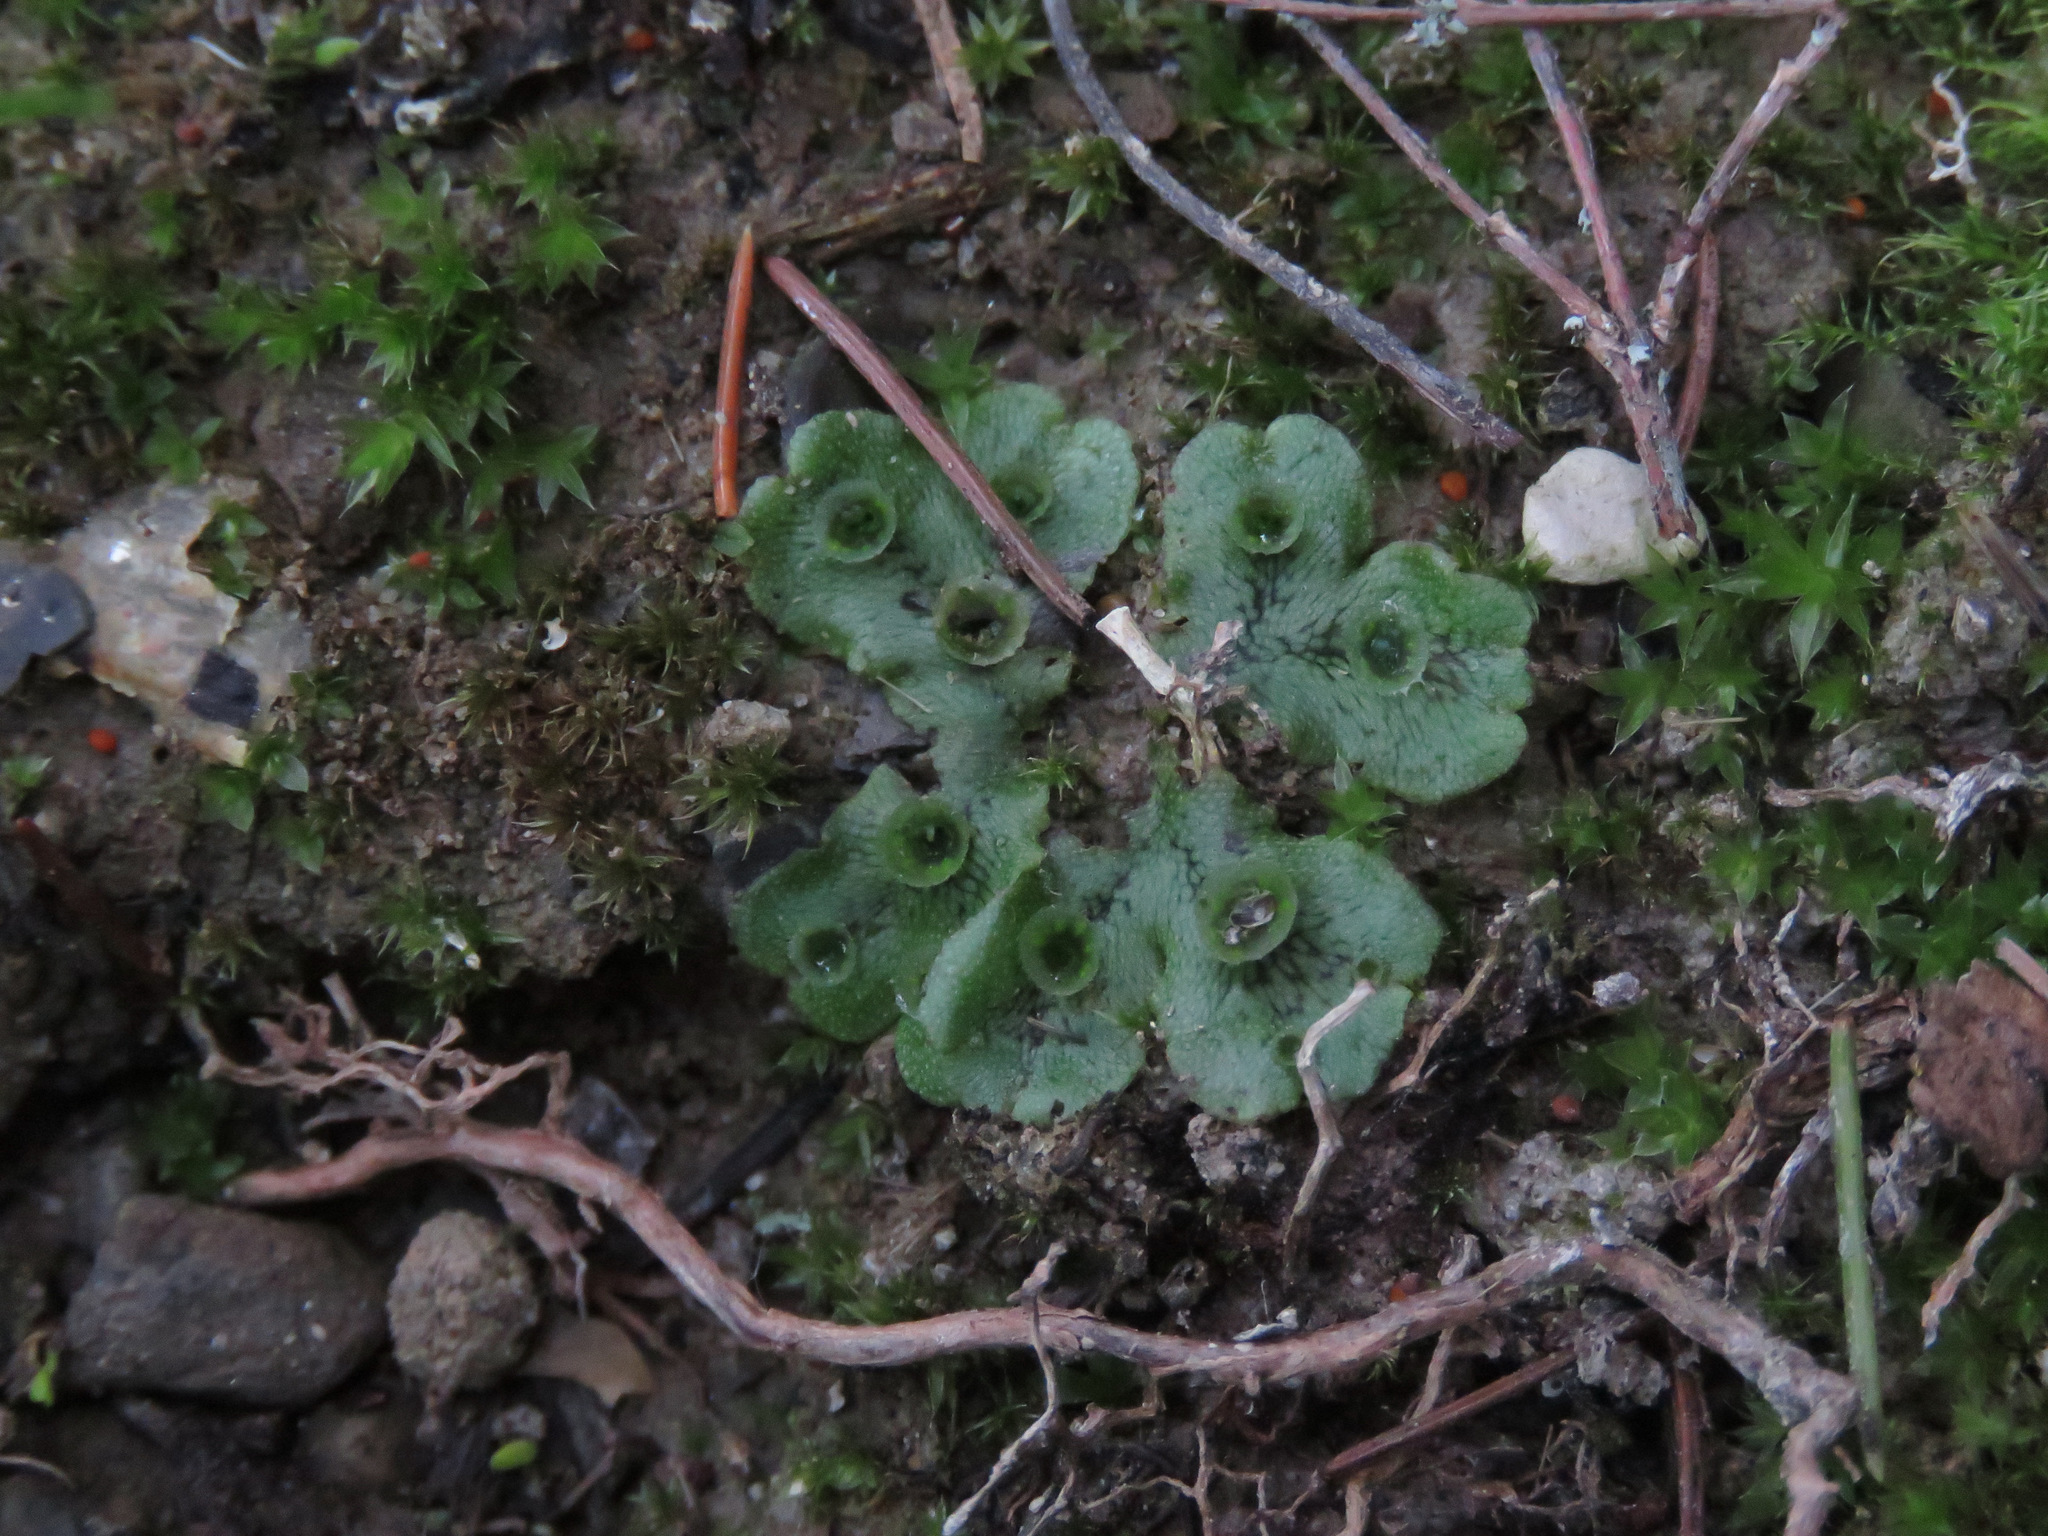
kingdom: Plantae
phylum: Marchantiophyta
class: Marchantiopsida
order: Marchantiales
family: Marchantiaceae
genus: Marchantia
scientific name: Marchantia polymorpha
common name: Common liverwort
